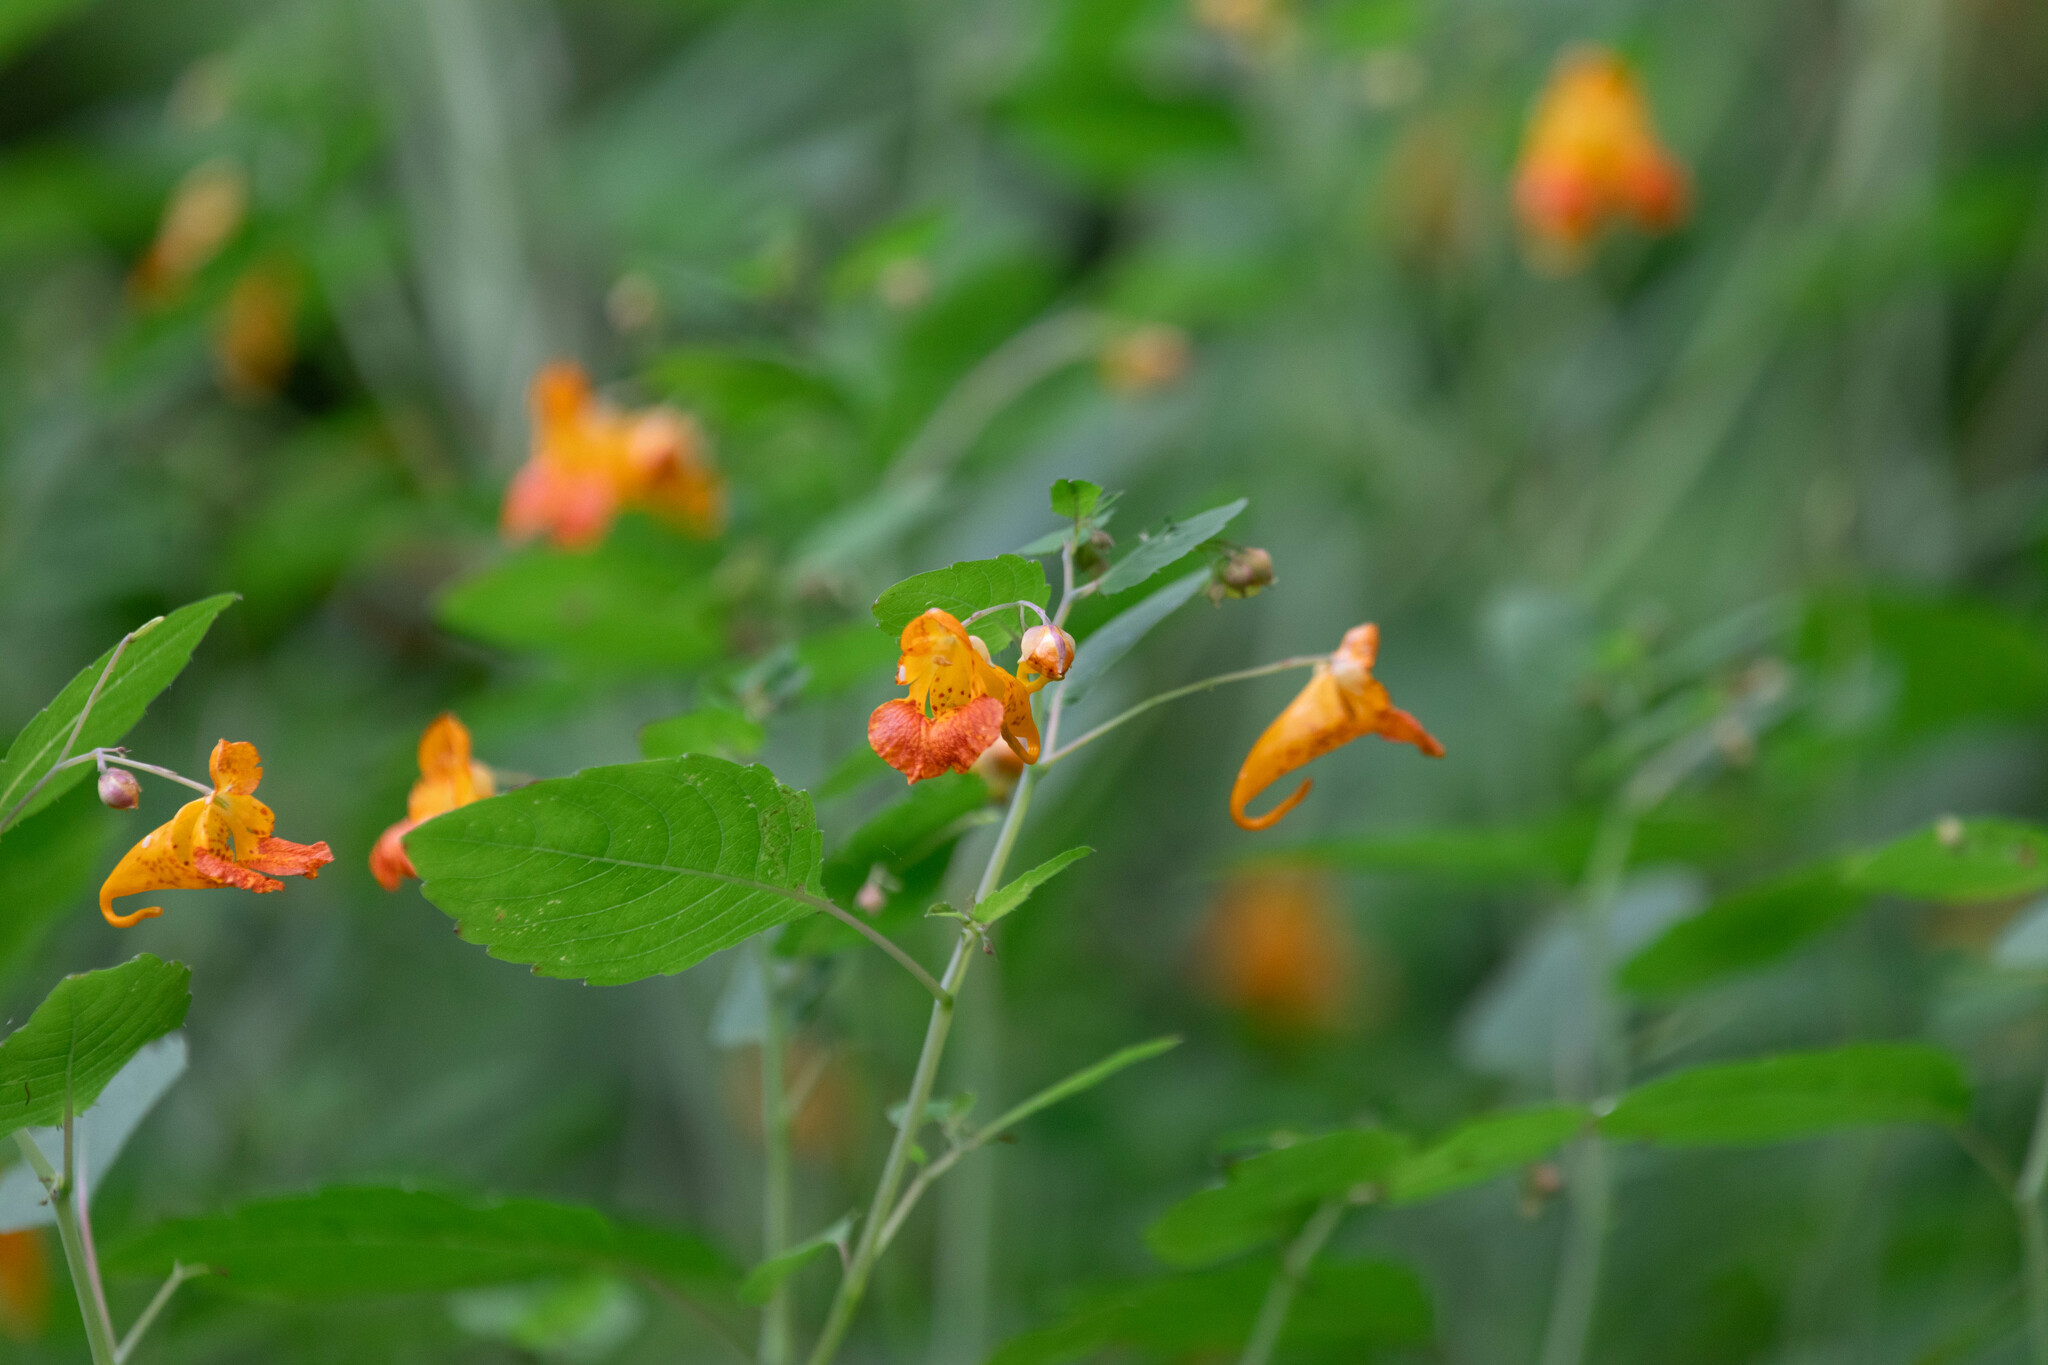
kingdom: Plantae
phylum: Tracheophyta
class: Magnoliopsida
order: Ericales
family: Balsaminaceae
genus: Impatiens
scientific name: Impatiens capensis
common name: Orange balsam
